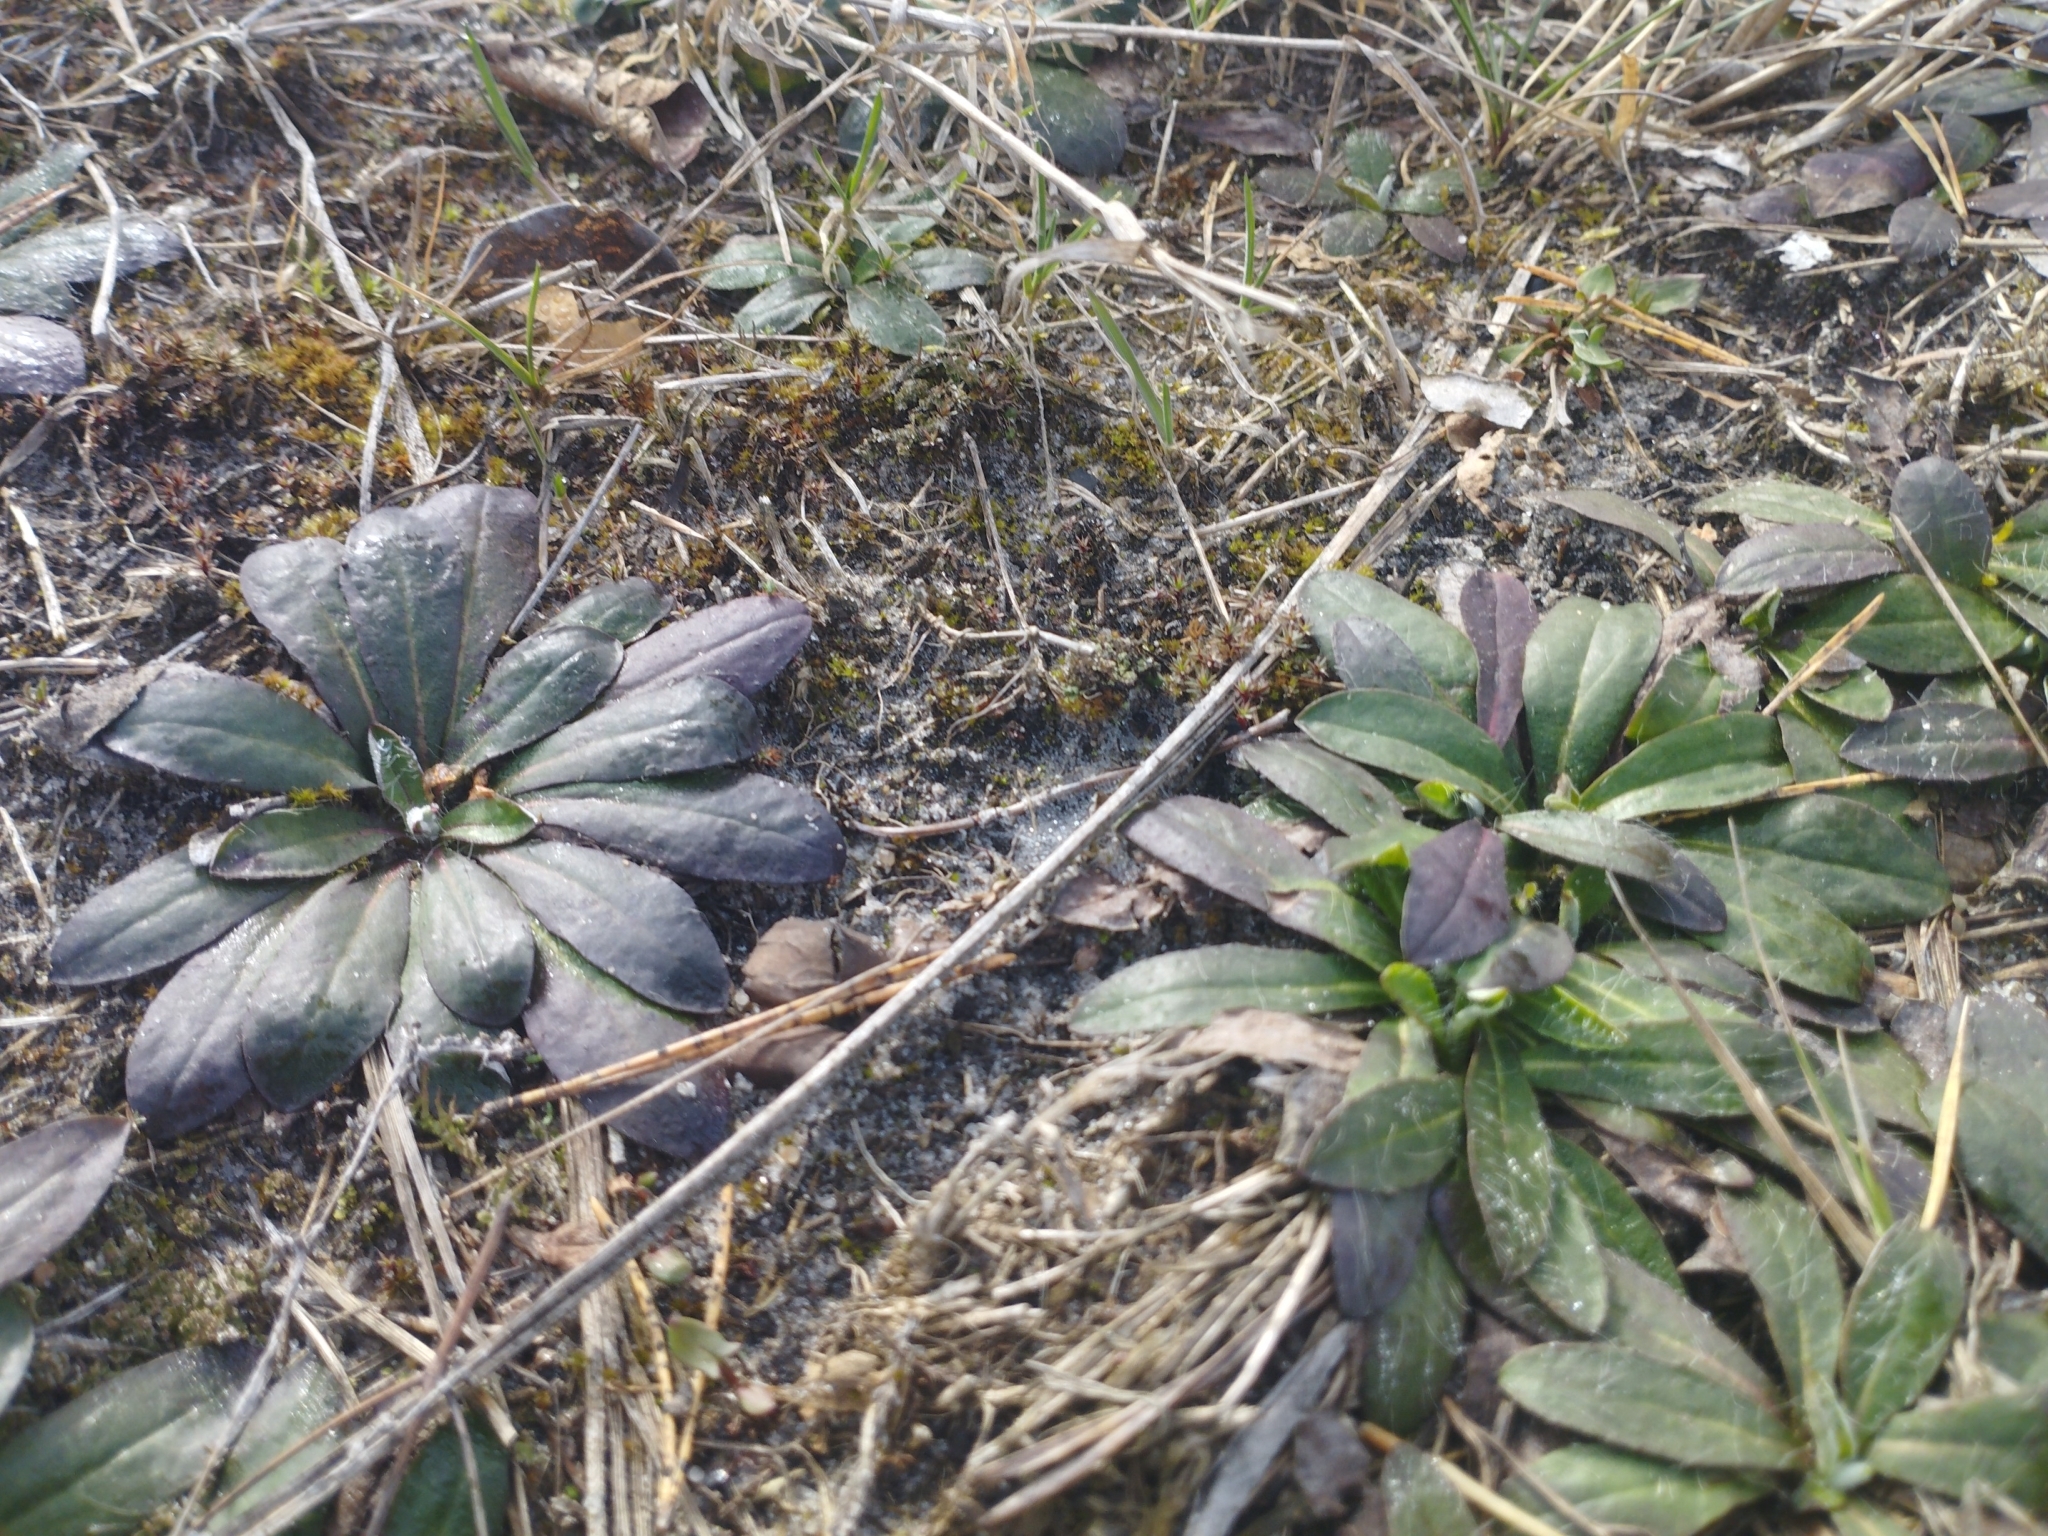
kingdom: Plantae
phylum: Tracheophyta
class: Magnoliopsida
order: Asterales
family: Asteraceae
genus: Pilosella
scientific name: Pilosella officinarum
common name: Mouse-ear hawkweed
